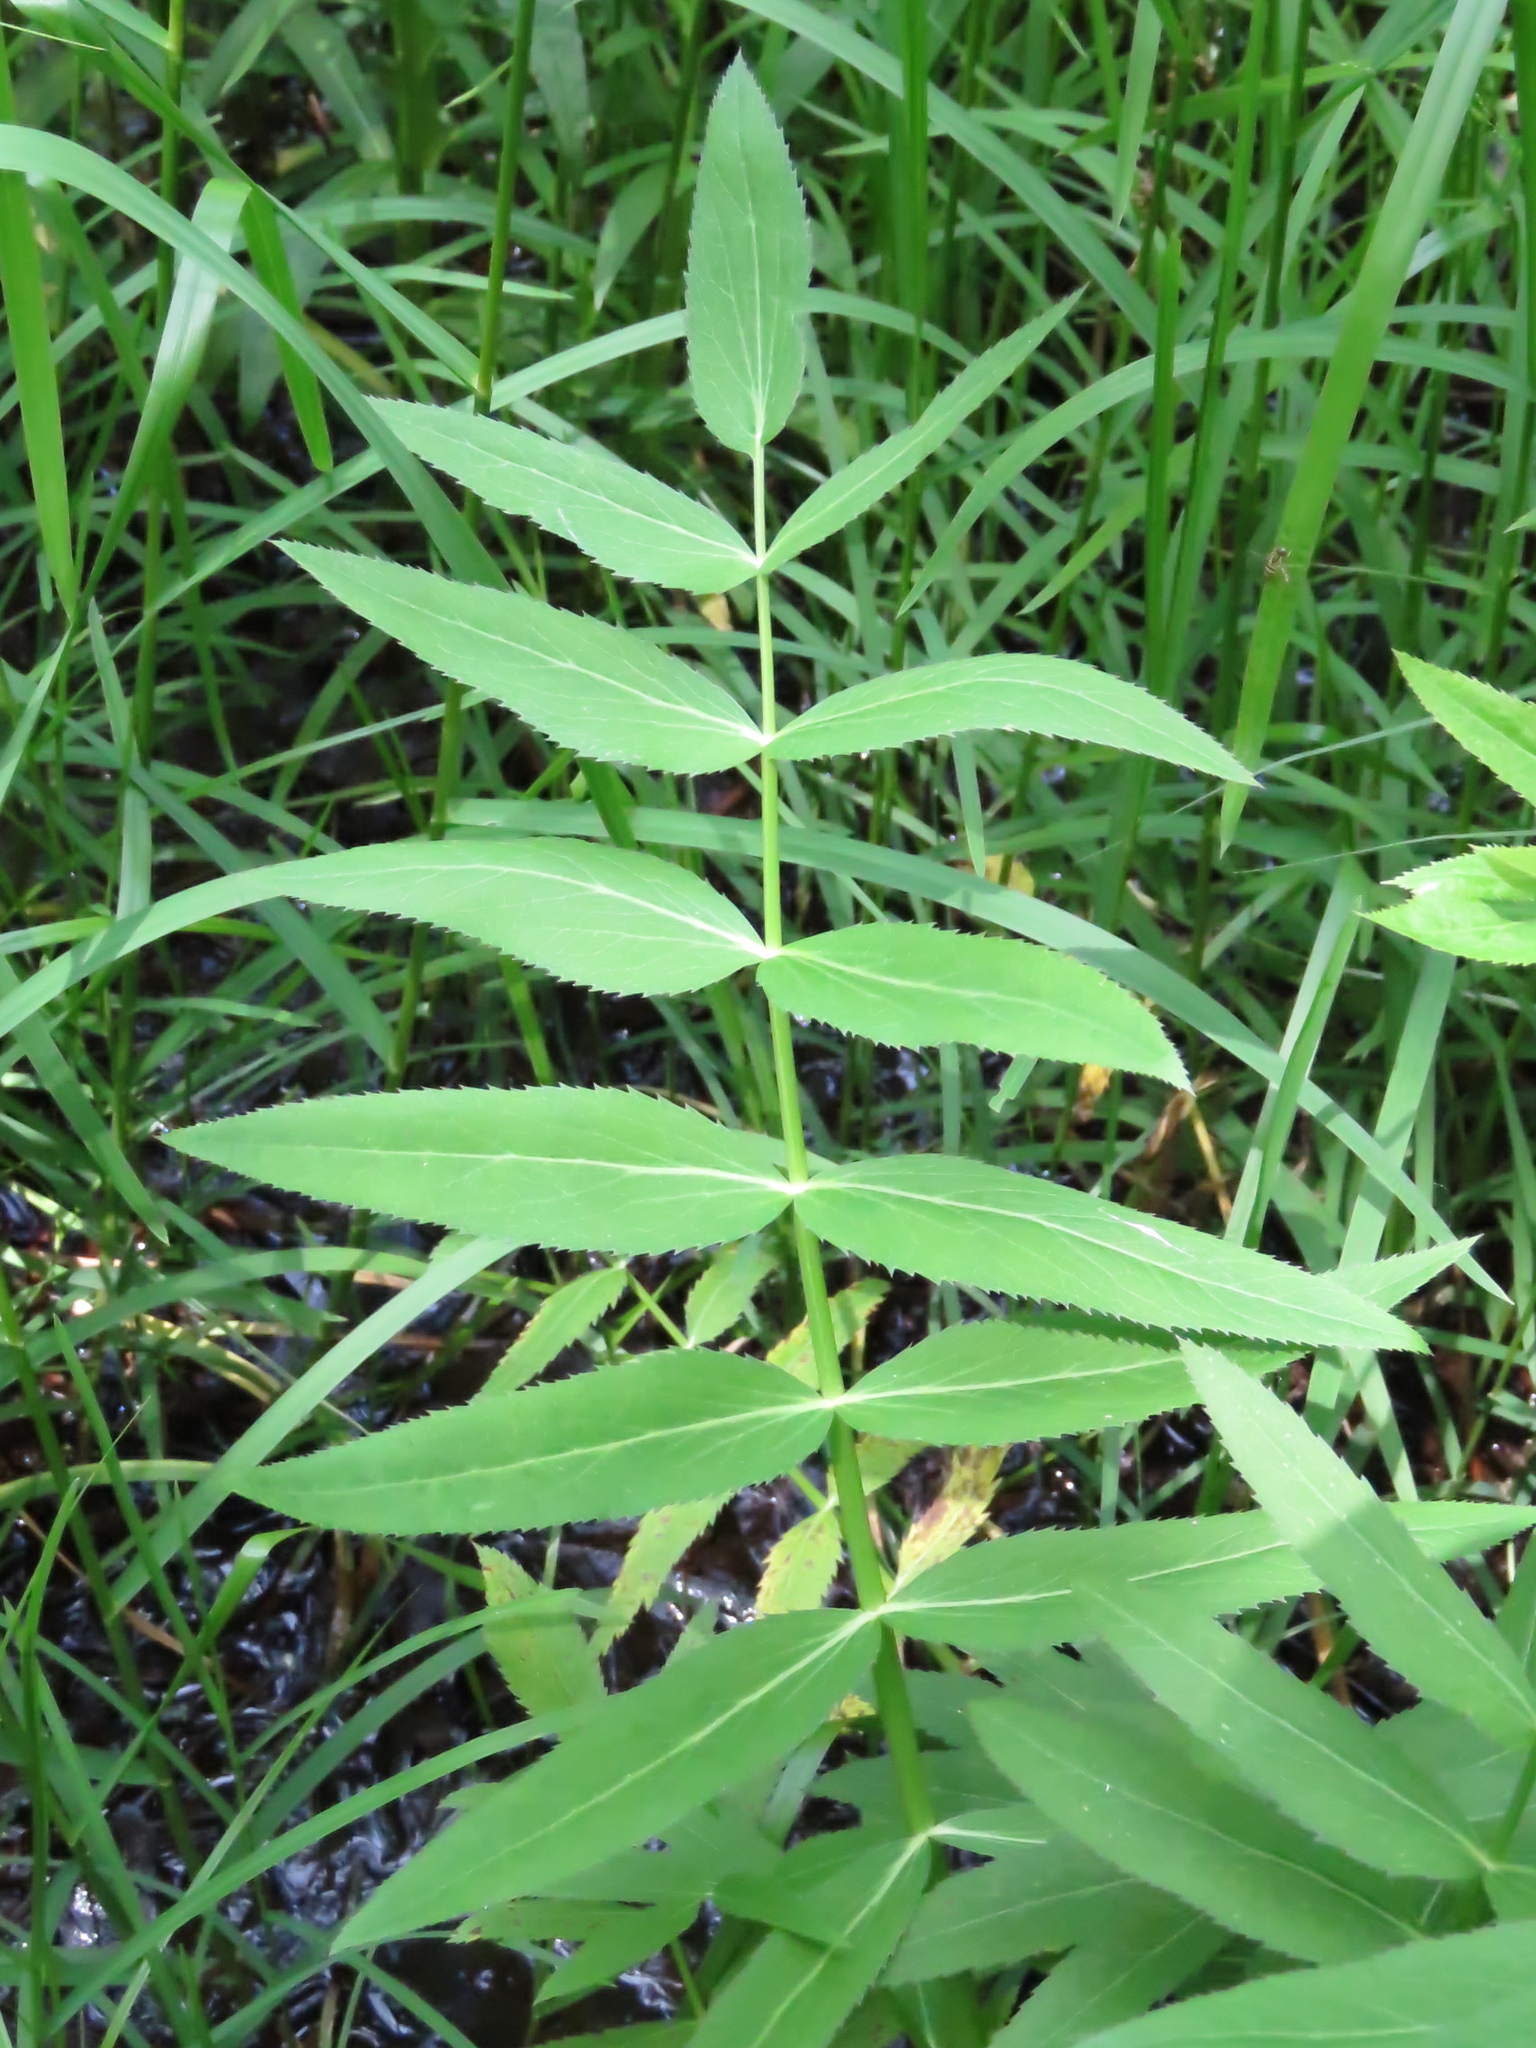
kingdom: Plantae
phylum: Tracheophyta
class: Magnoliopsida
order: Apiales
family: Apiaceae
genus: Sium
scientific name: Sium suave
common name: Hemlock water-parsnip
